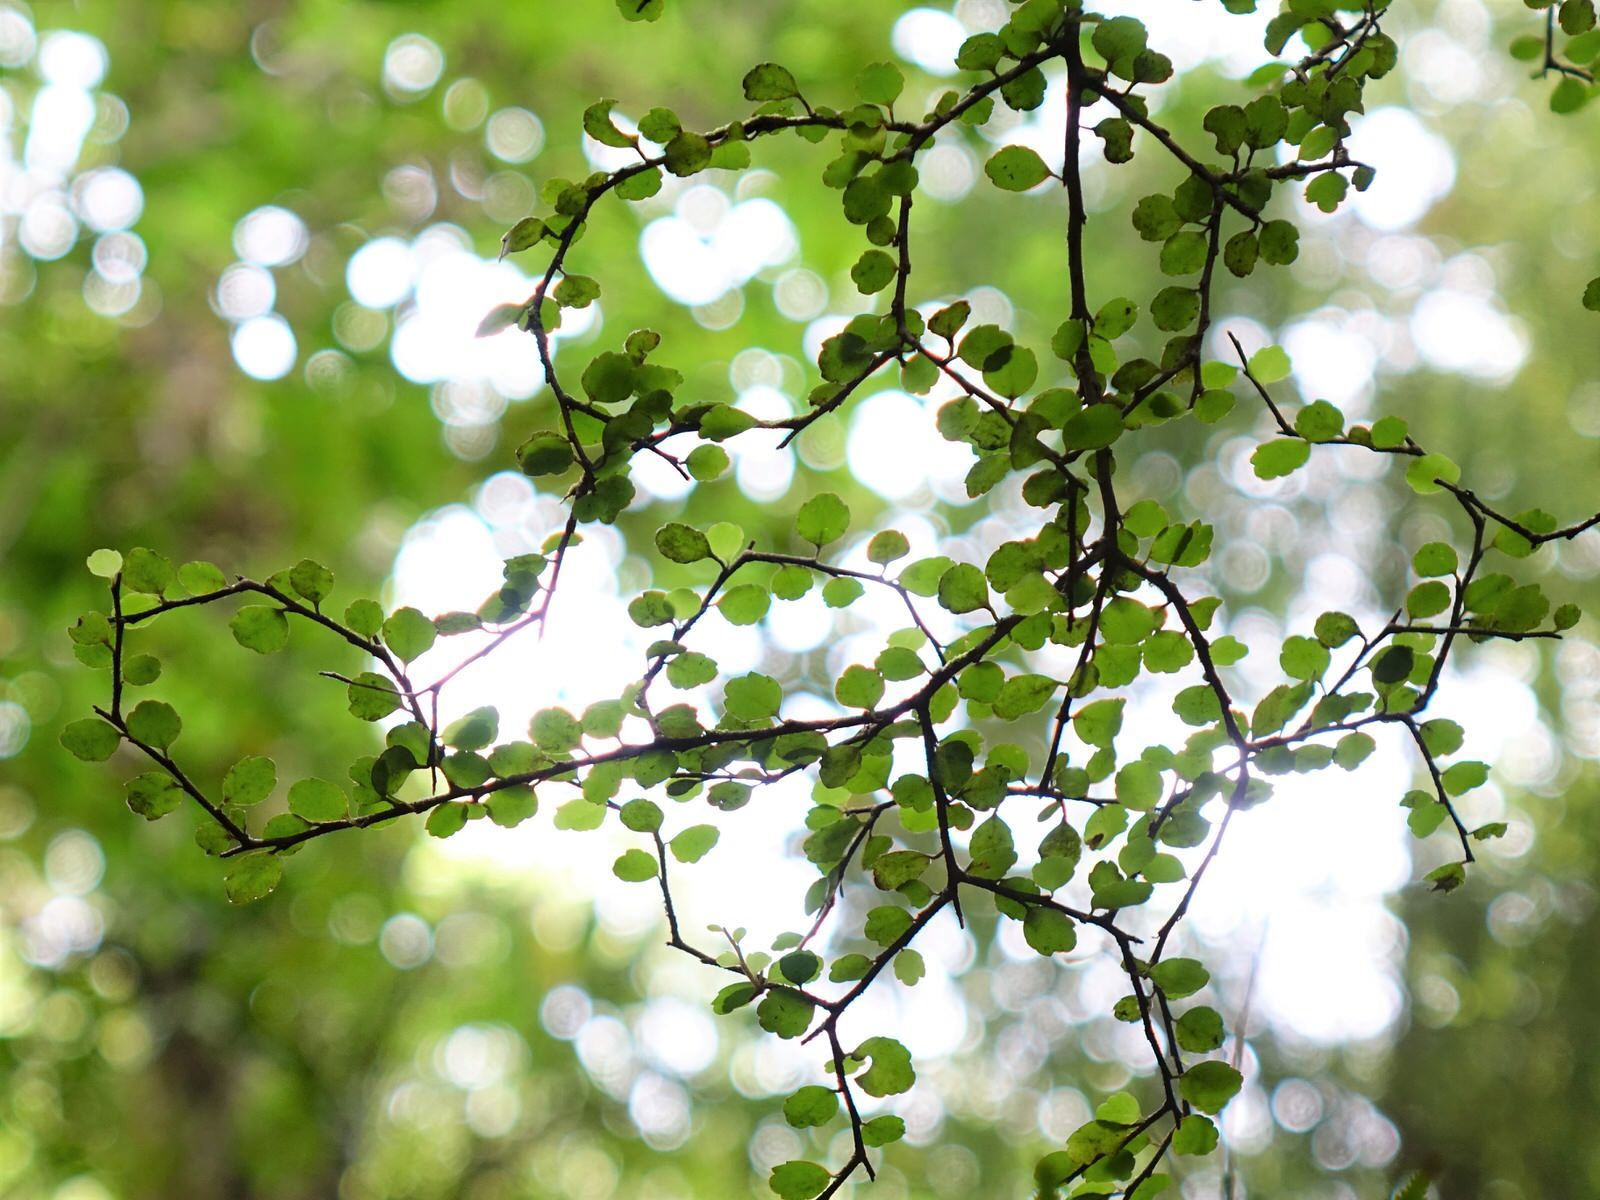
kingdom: Plantae
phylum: Tracheophyta
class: Magnoliopsida
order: Apiales
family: Araliaceae
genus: Raukaua
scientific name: Raukaua anomalus
